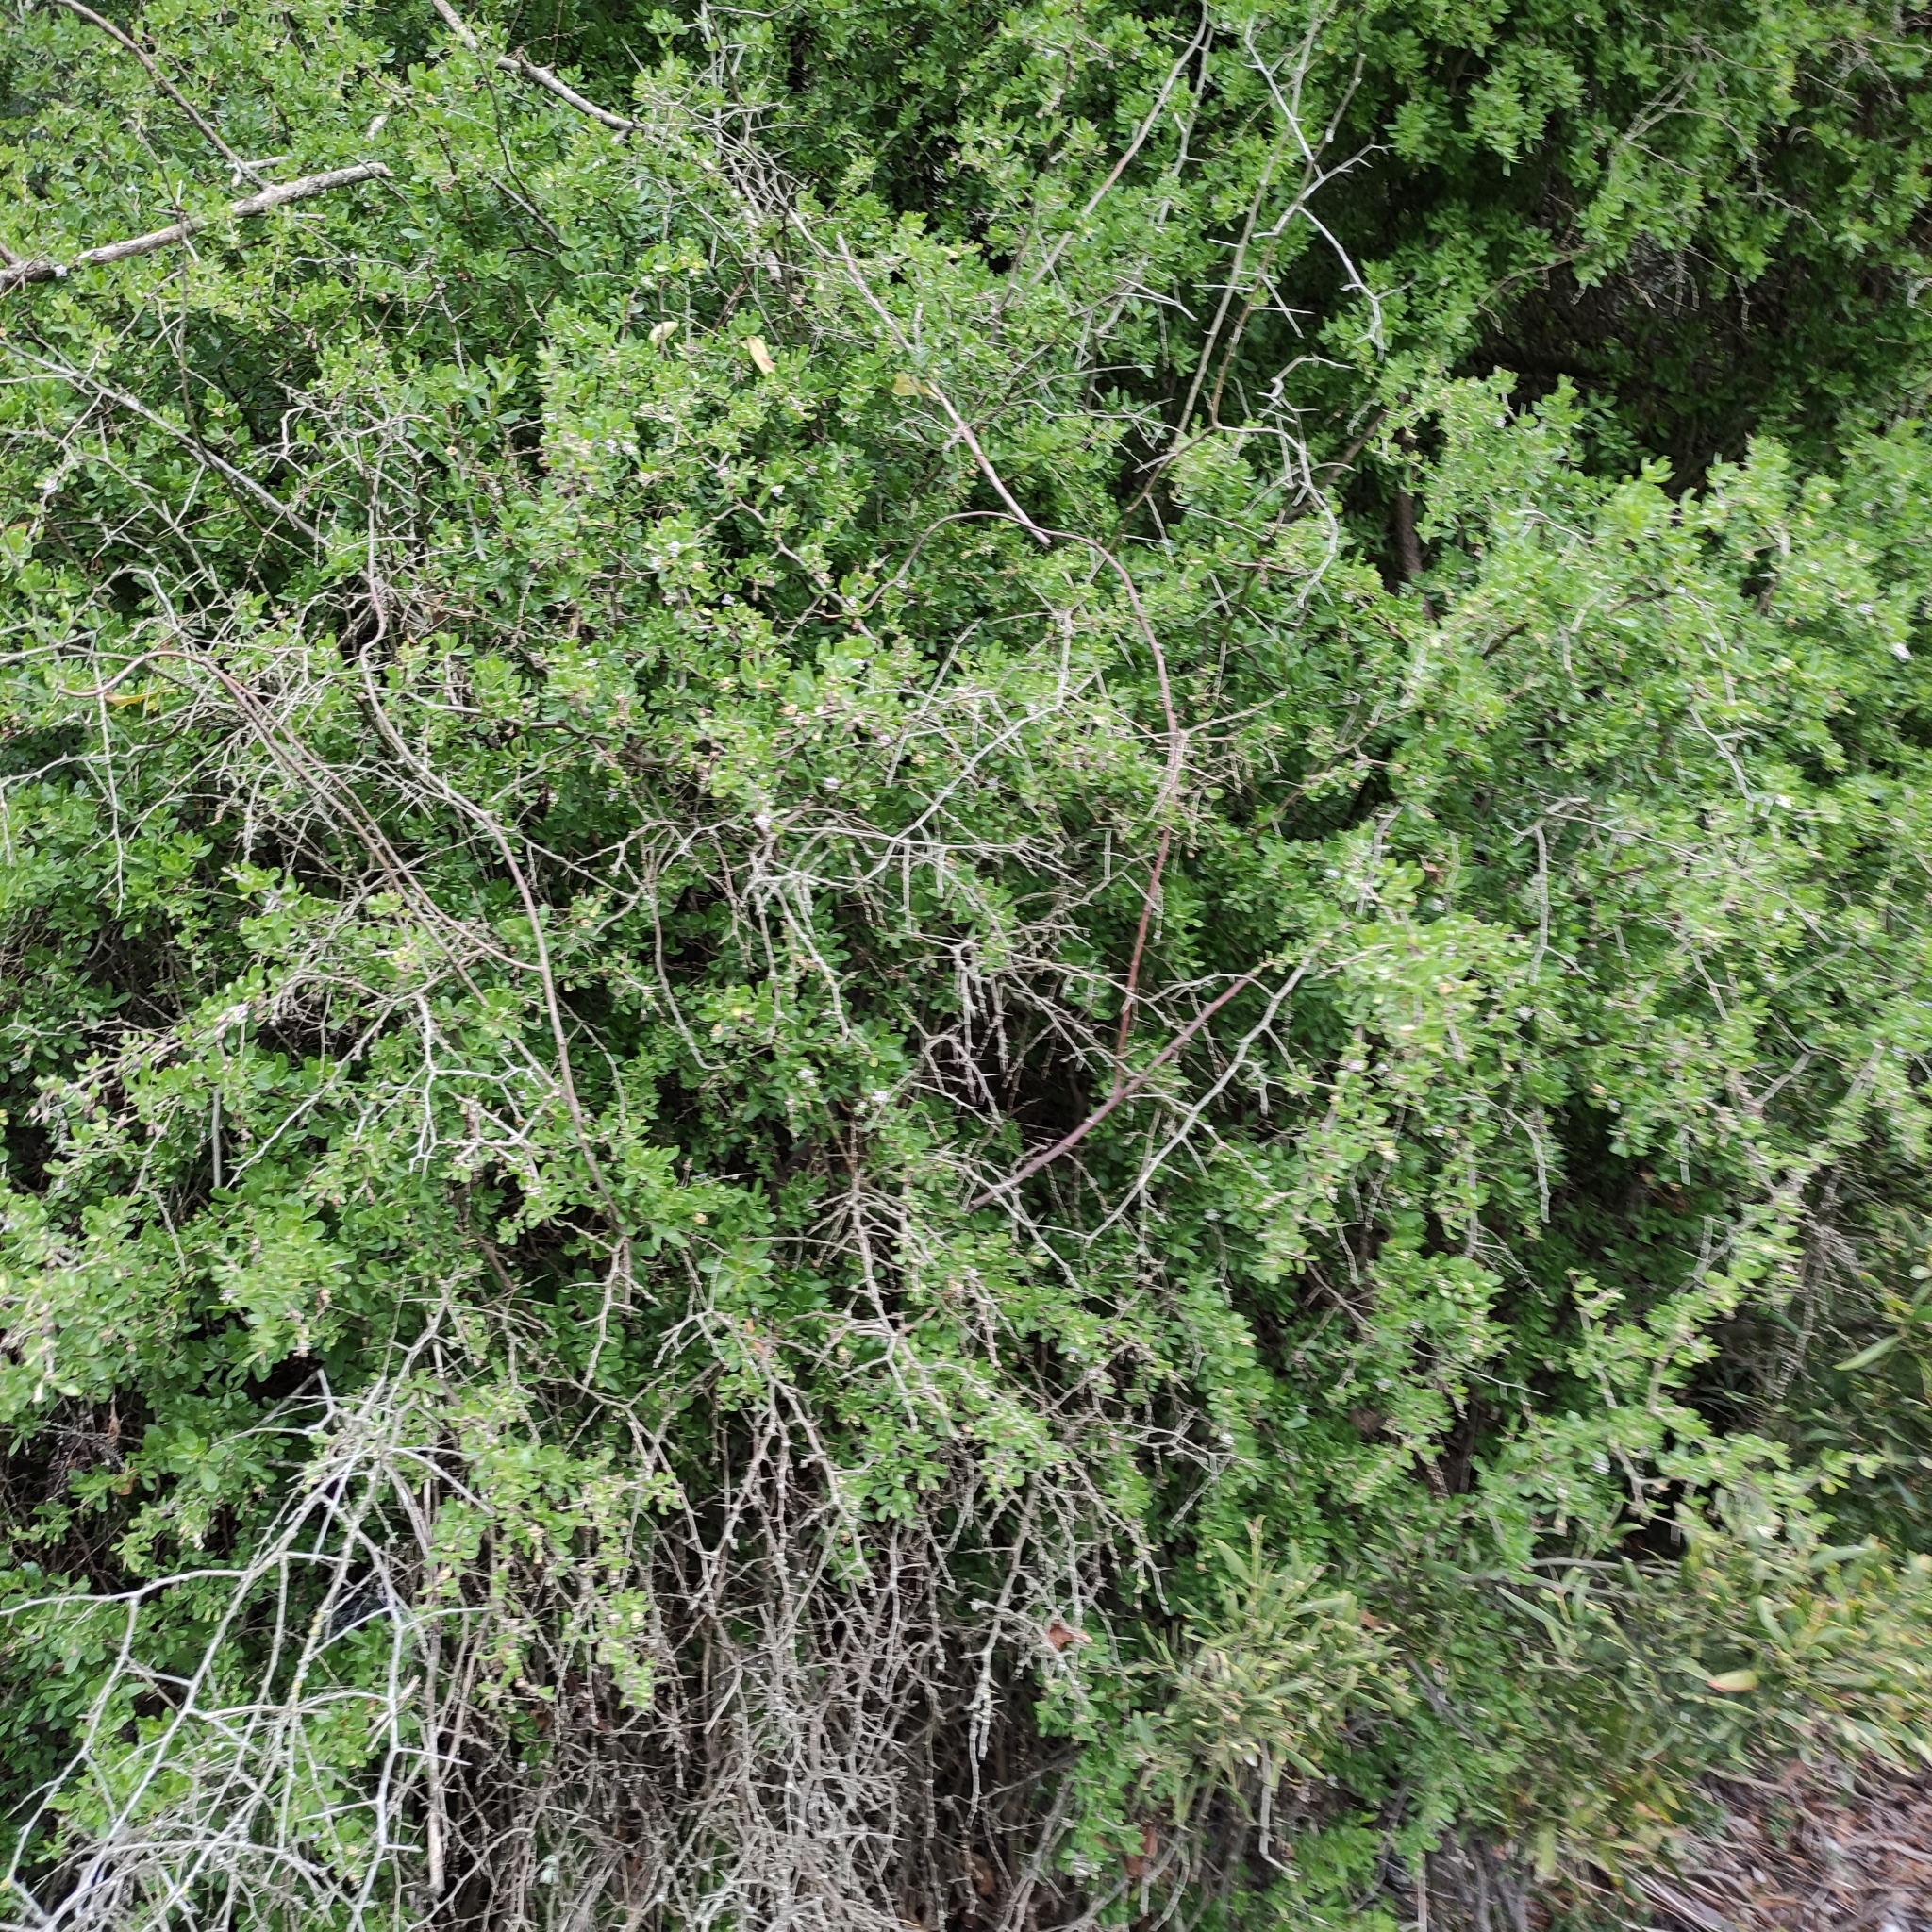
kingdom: Plantae
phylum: Tracheophyta
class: Magnoliopsida
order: Solanales
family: Solanaceae
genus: Lycium
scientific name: Lycium ferocissimum
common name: African boxthorn
